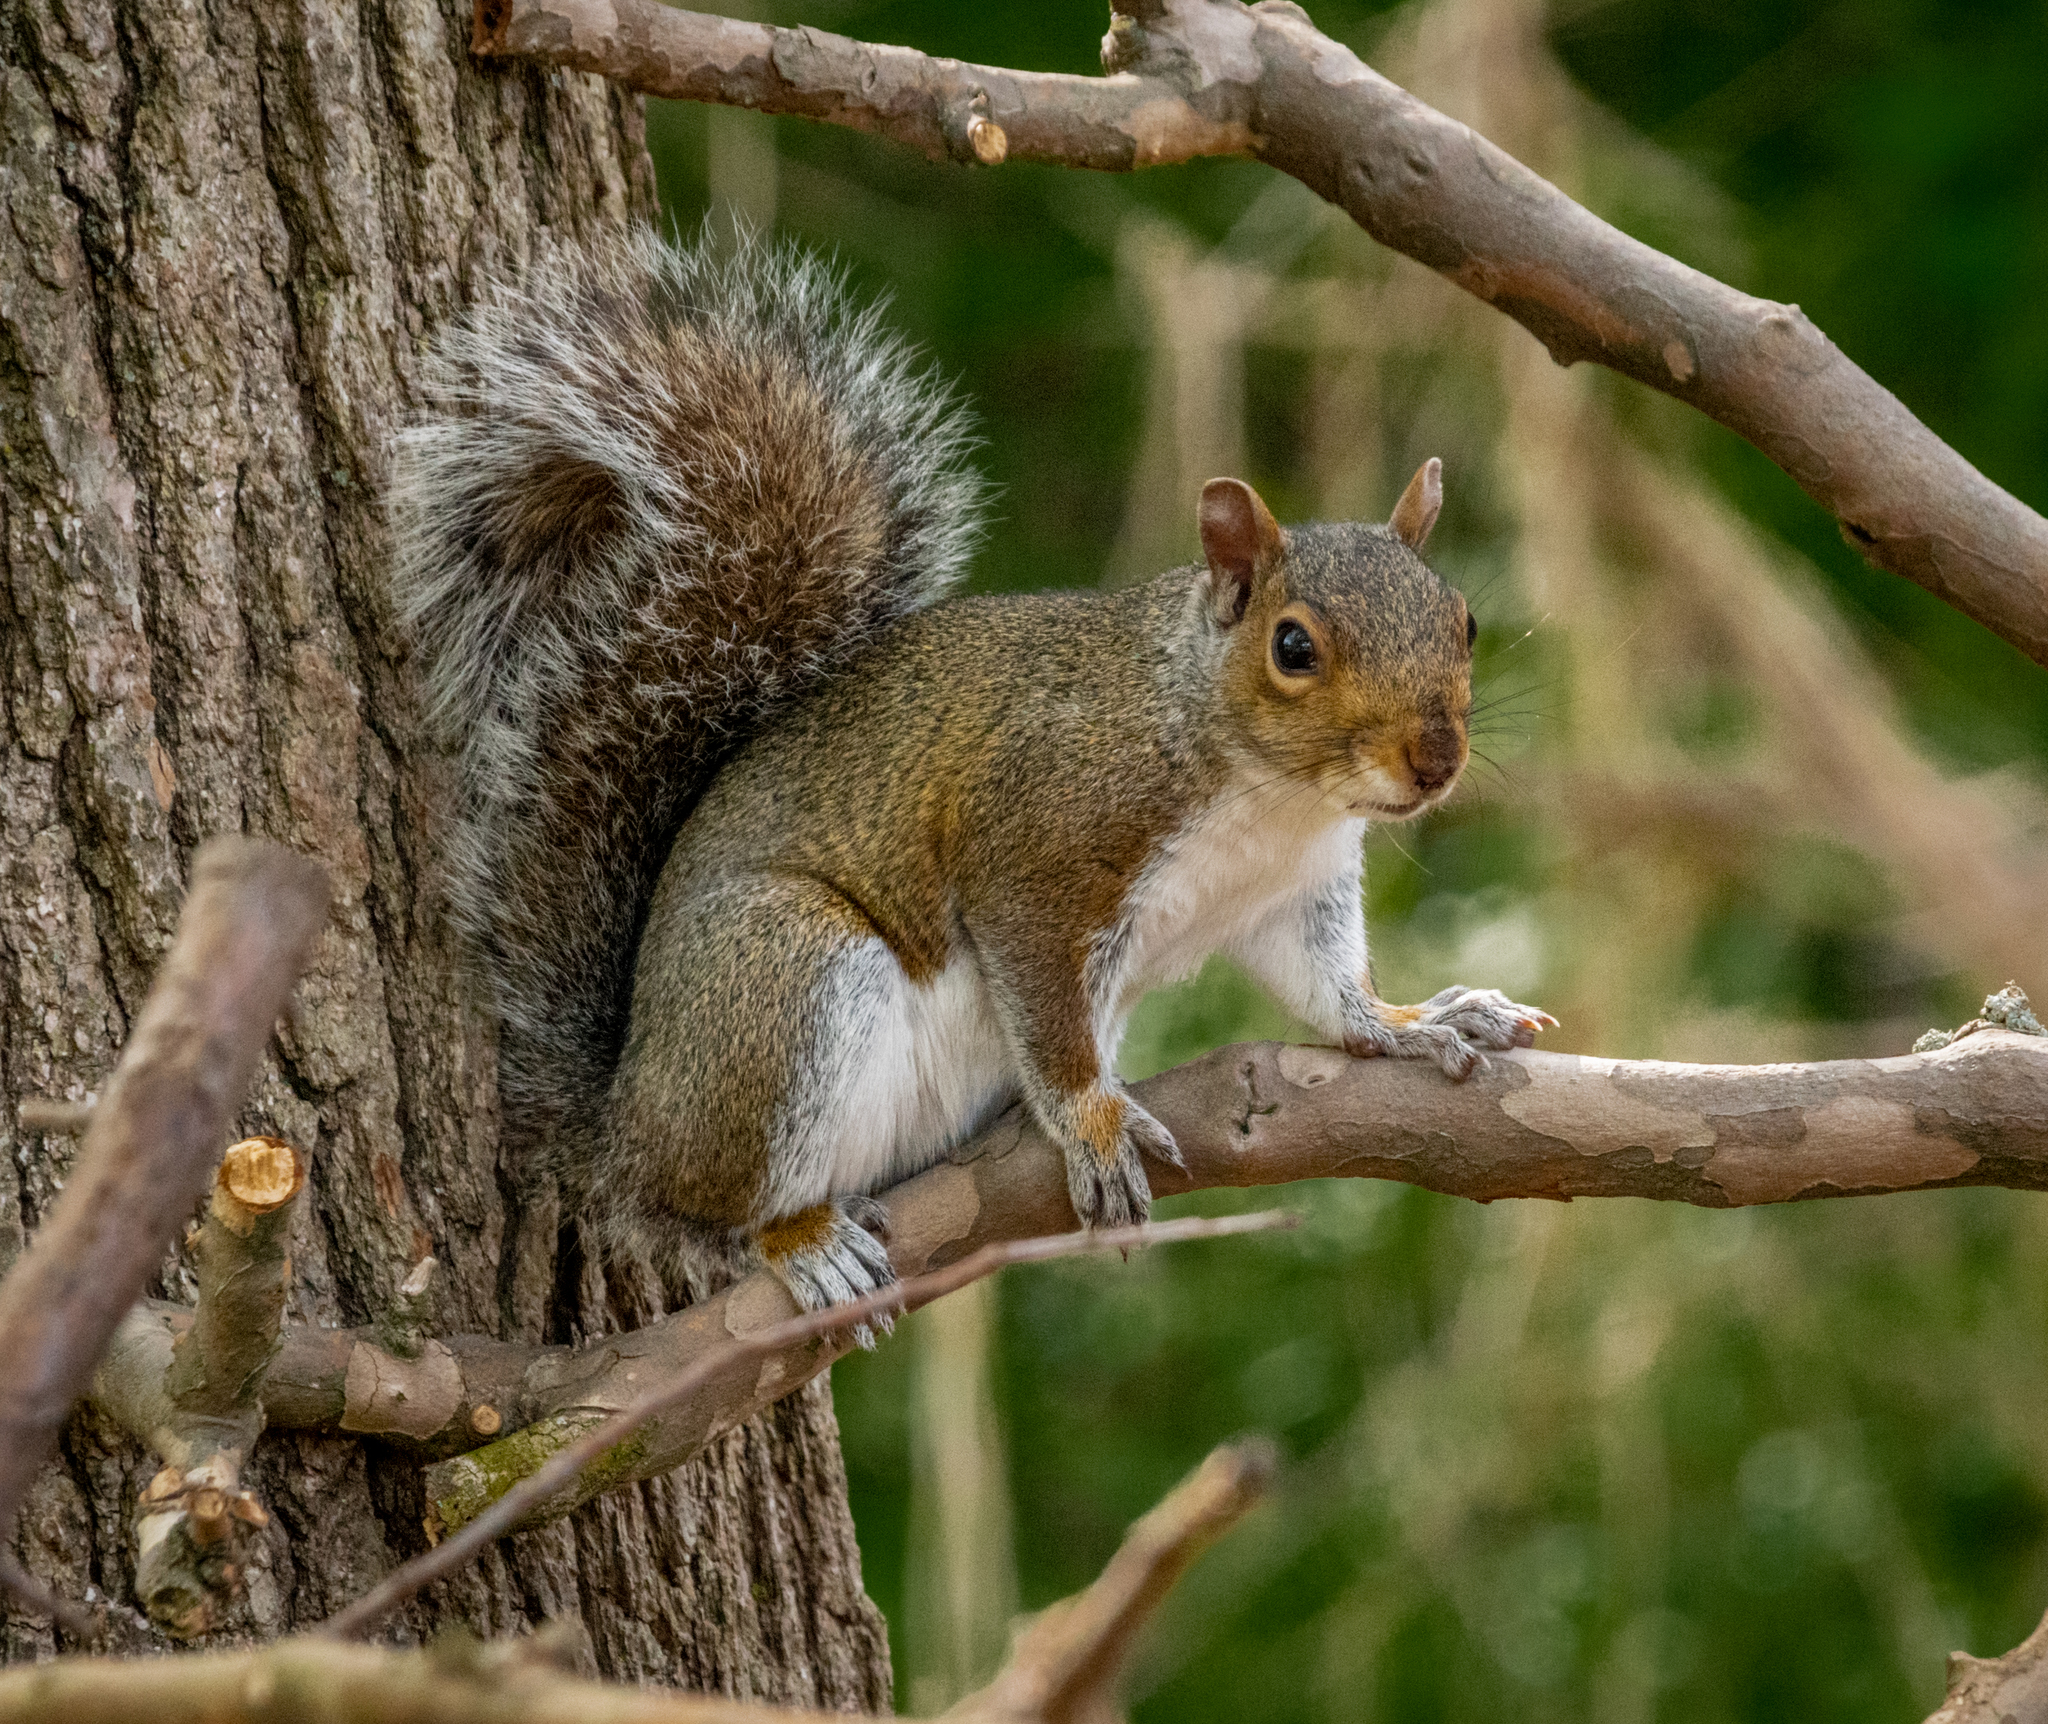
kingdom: Animalia
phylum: Chordata
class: Mammalia
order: Rodentia
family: Sciuridae
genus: Sciurus
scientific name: Sciurus carolinensis
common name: Eastern gray squirrel
